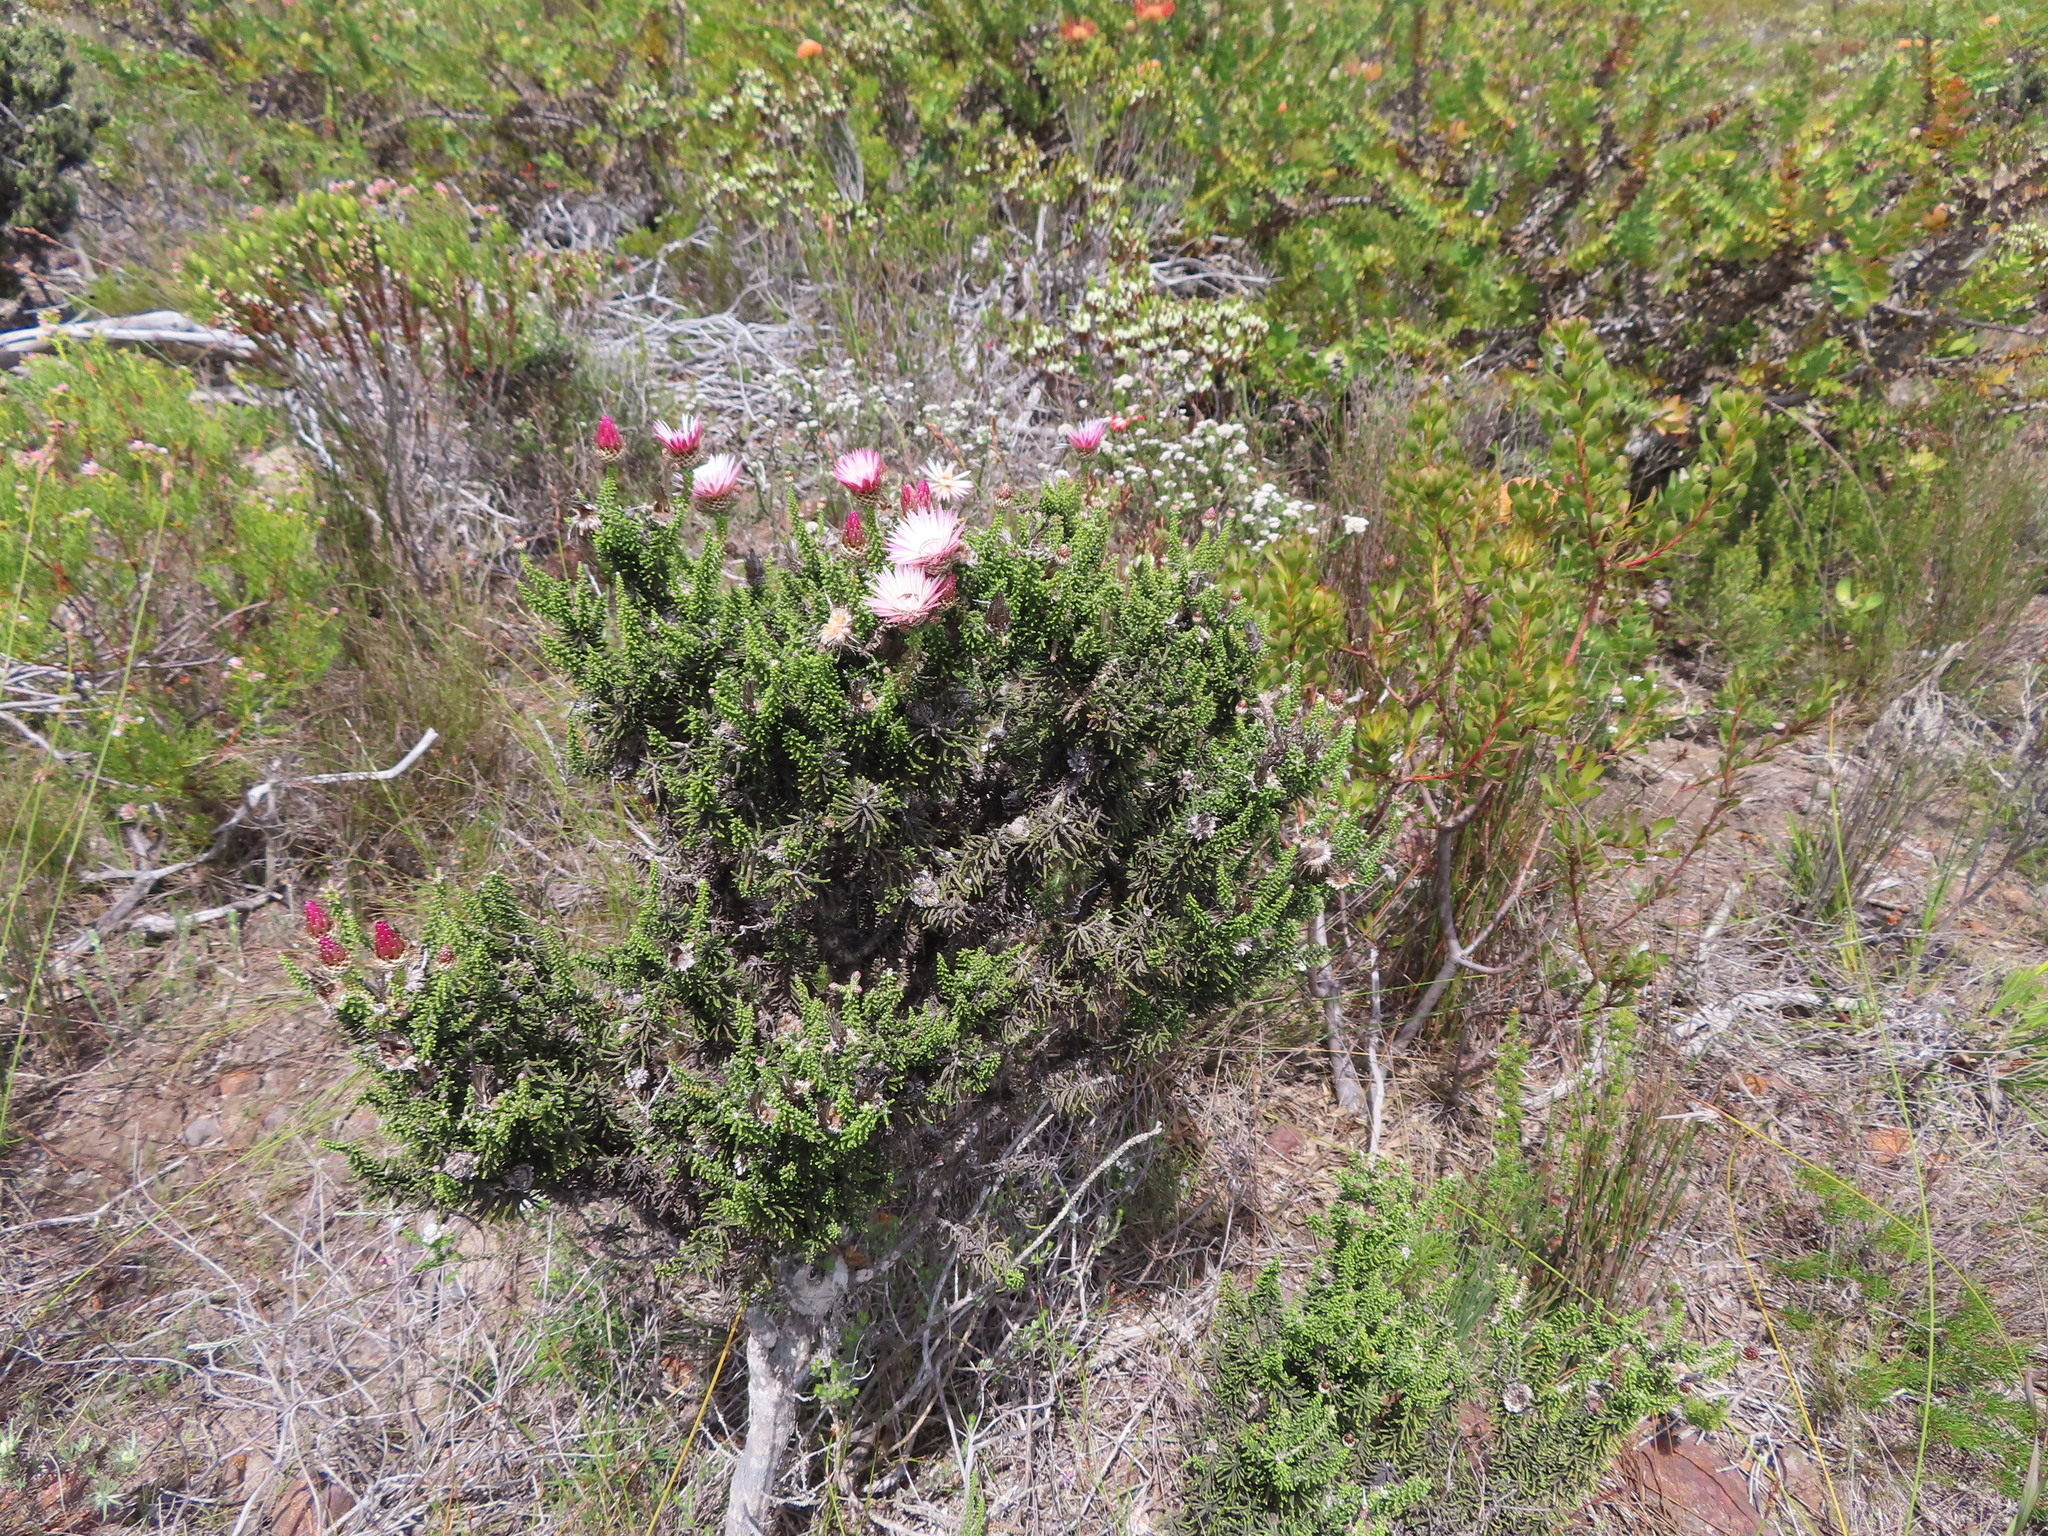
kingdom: Plantae
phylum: Tracheophyta
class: Magnoliopsida
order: Asterales
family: Asteraceae
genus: Phaenocoma
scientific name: Phaenocoma prolifera
